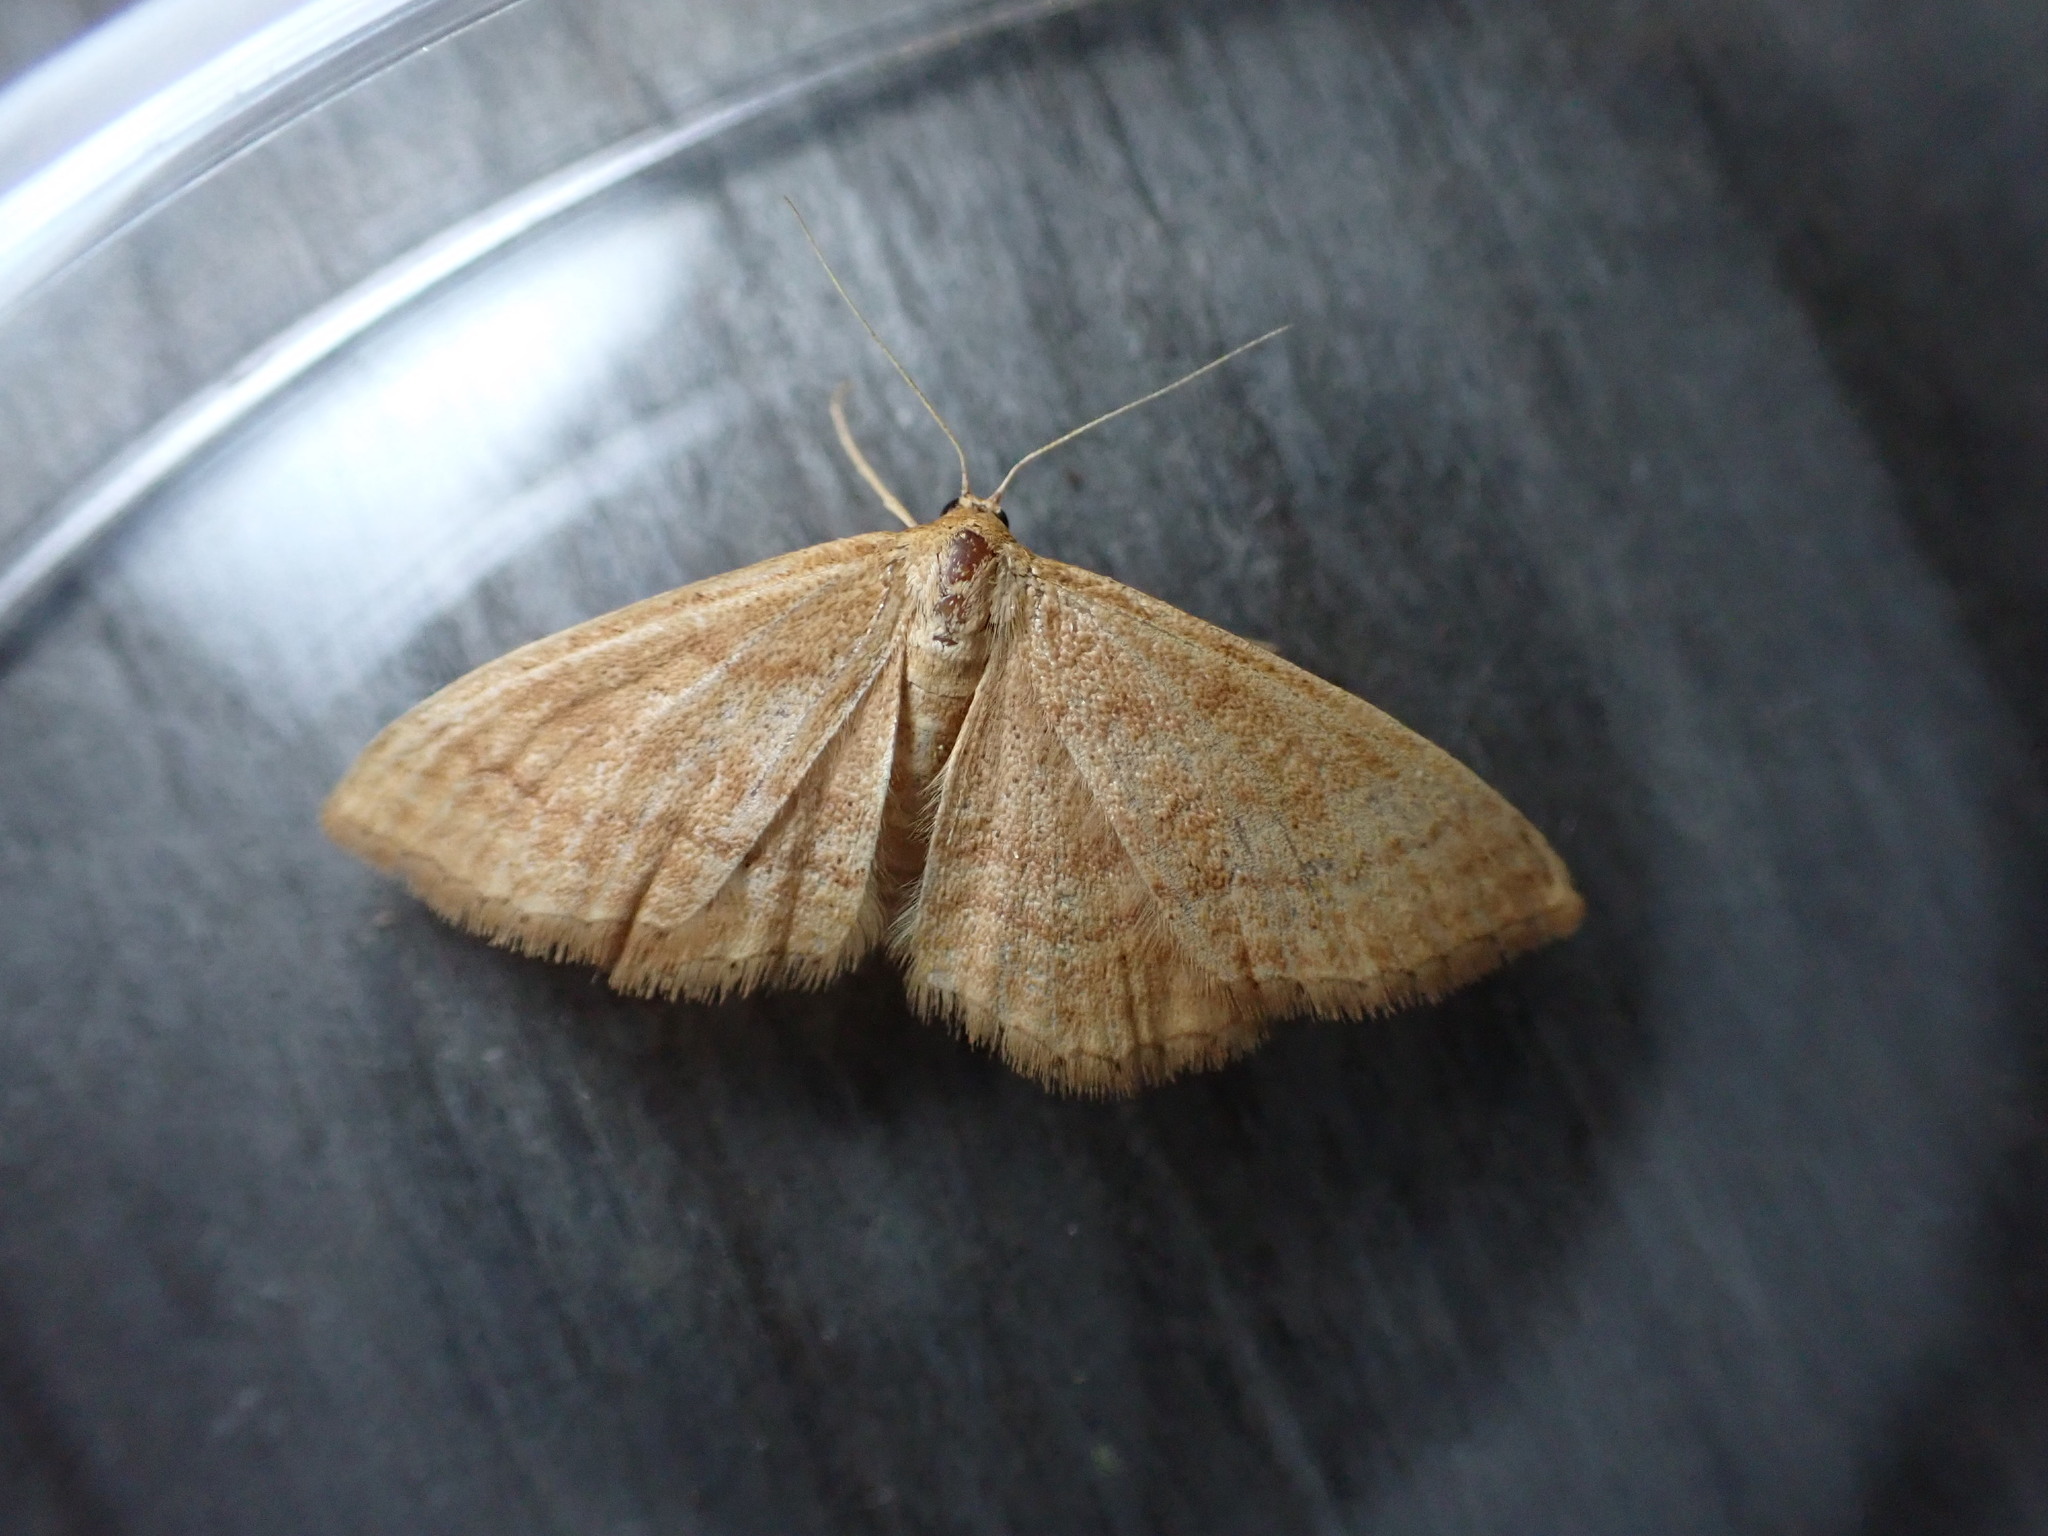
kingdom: Animalia
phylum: Arthropoda
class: Insecta
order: Lepidoptera
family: Geometridae
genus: Idaea
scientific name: Idaea ochrata
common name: Bright wave
